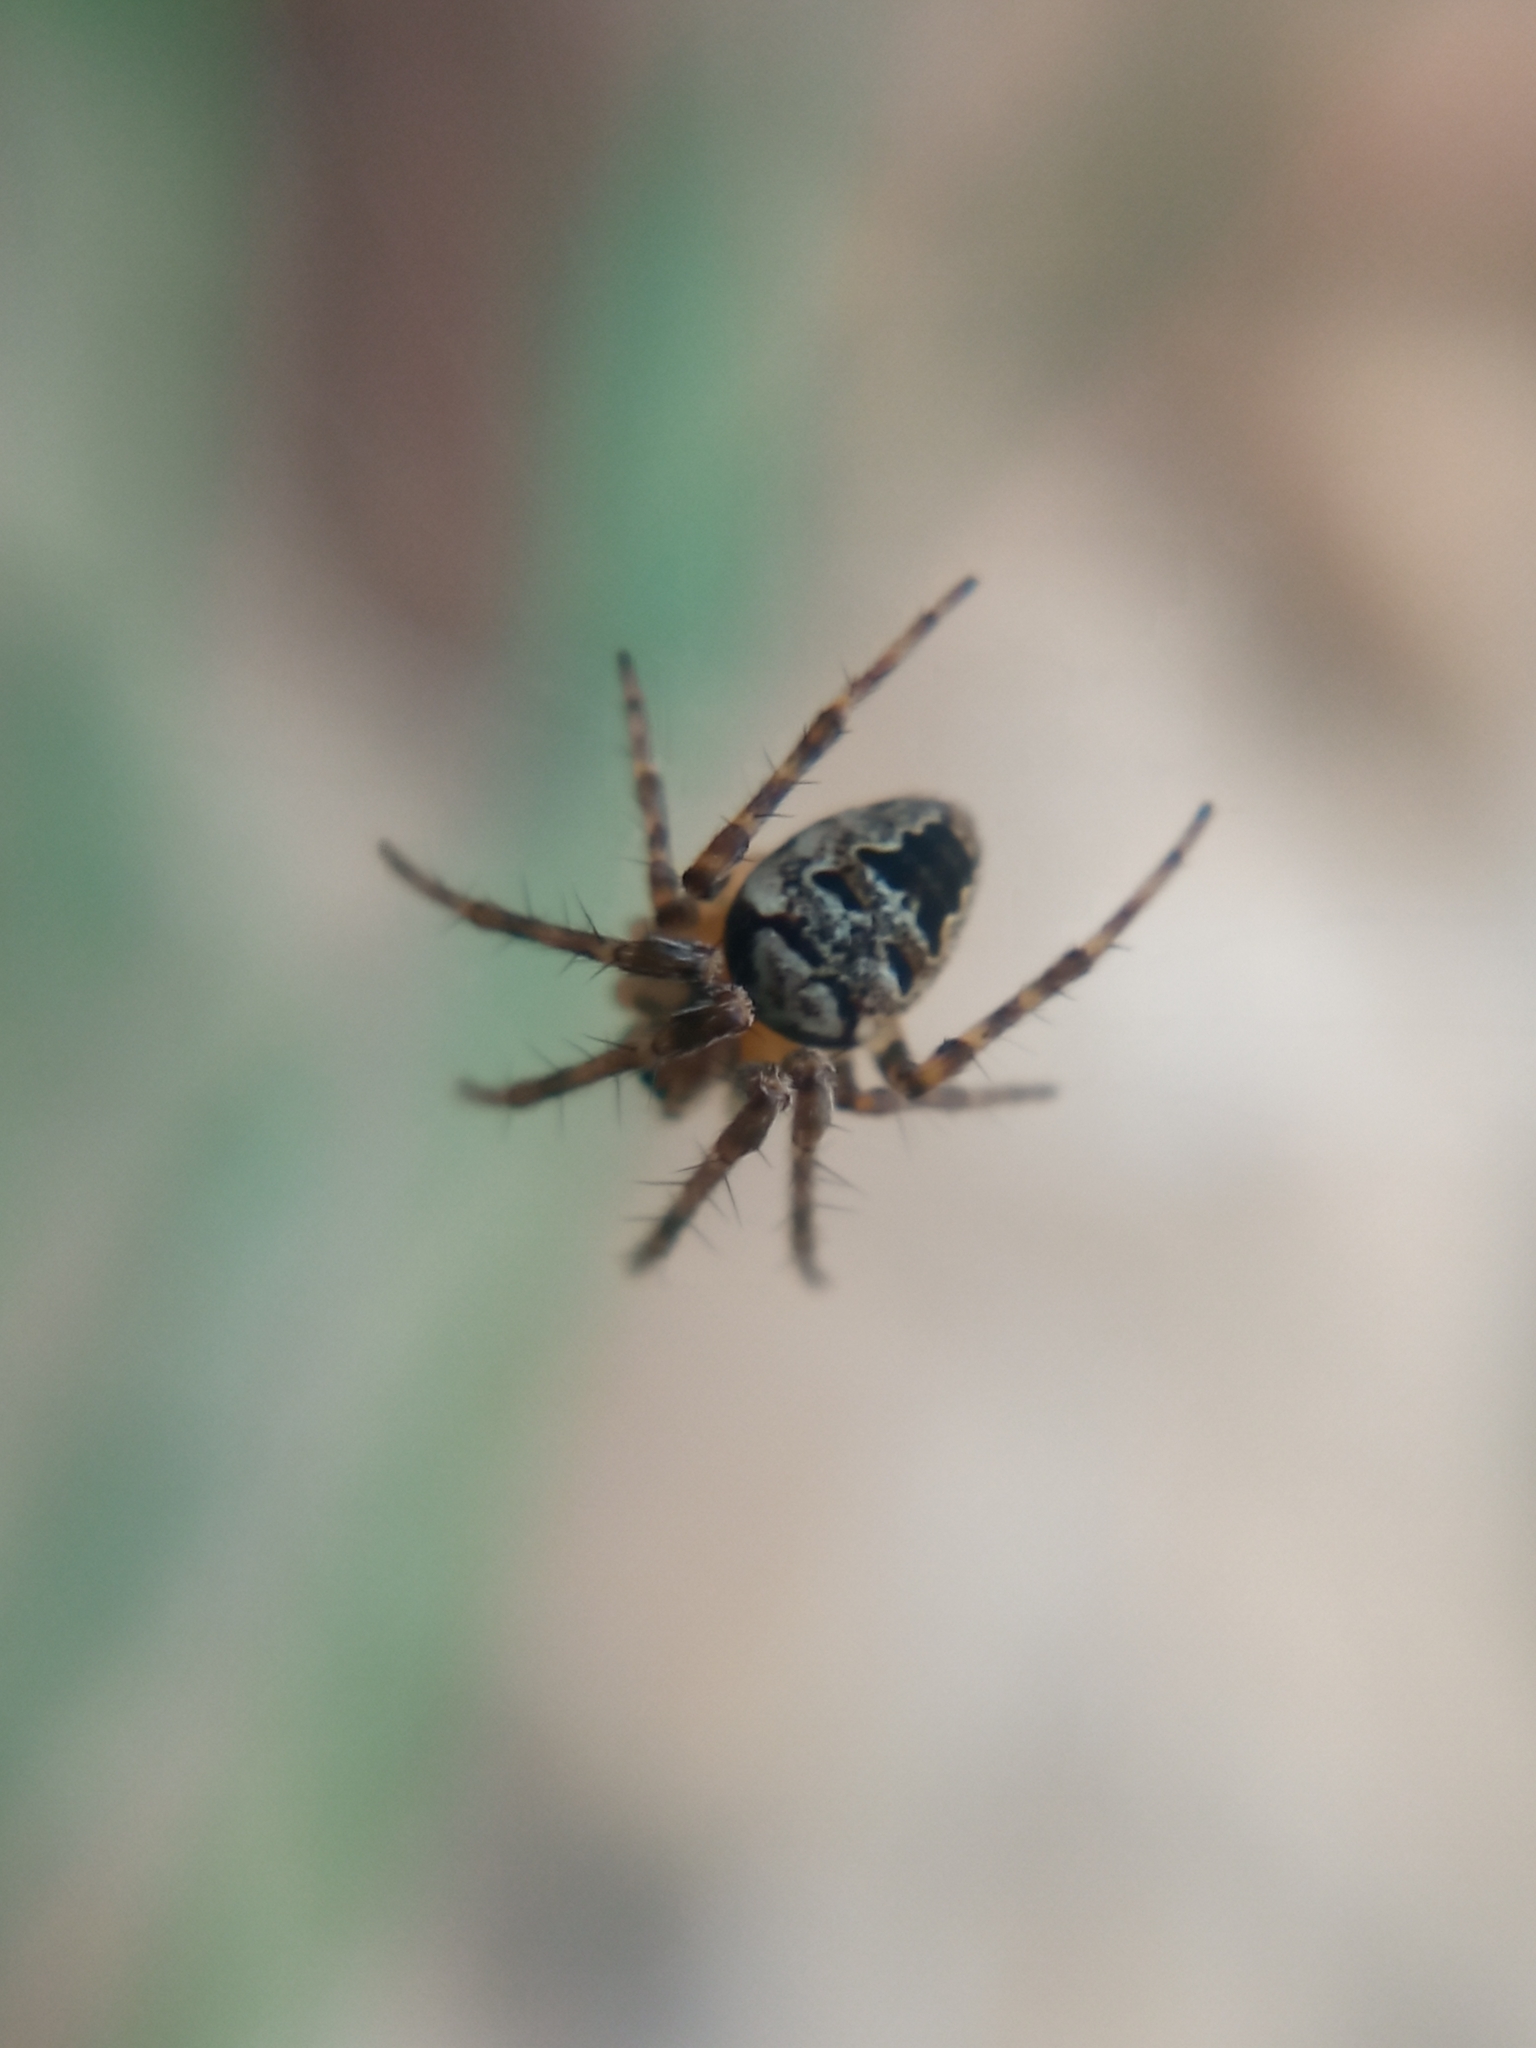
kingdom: Animalia
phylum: Arthropoda
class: Arachnida
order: Araneae
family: Araneidae
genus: Zilla
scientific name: Zilla diodia
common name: Zilla diodia
